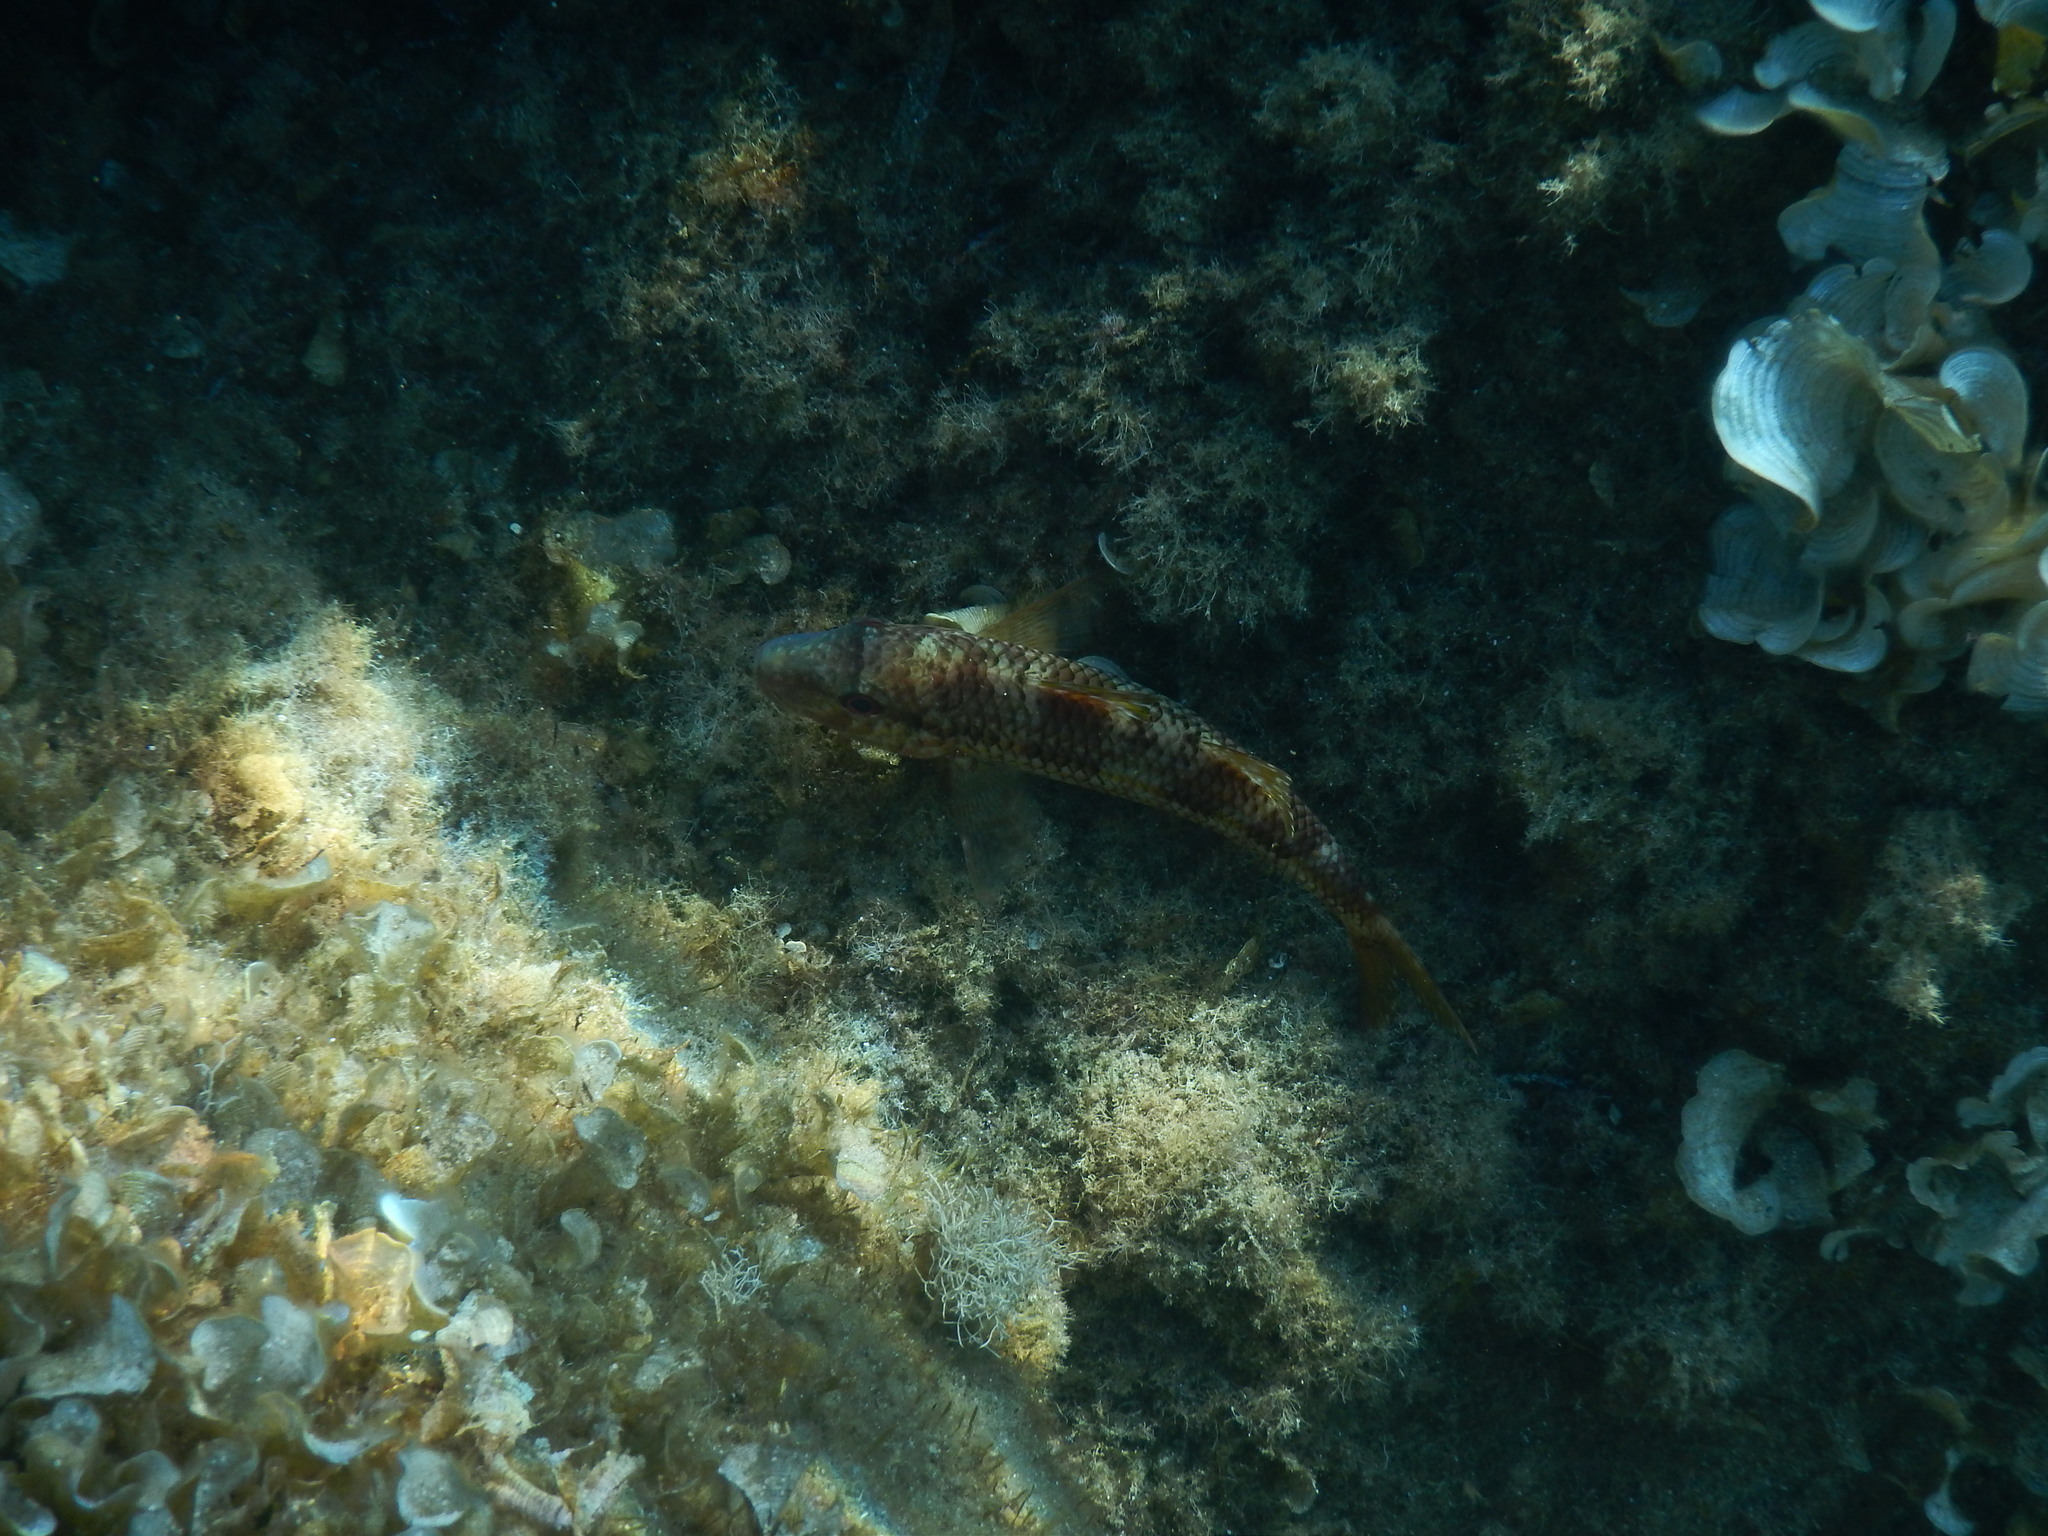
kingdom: Animalia
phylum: Chordata
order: Perciformes
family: Mullidae
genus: Mullus
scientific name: Mullus surmuletus
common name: Red mullet
